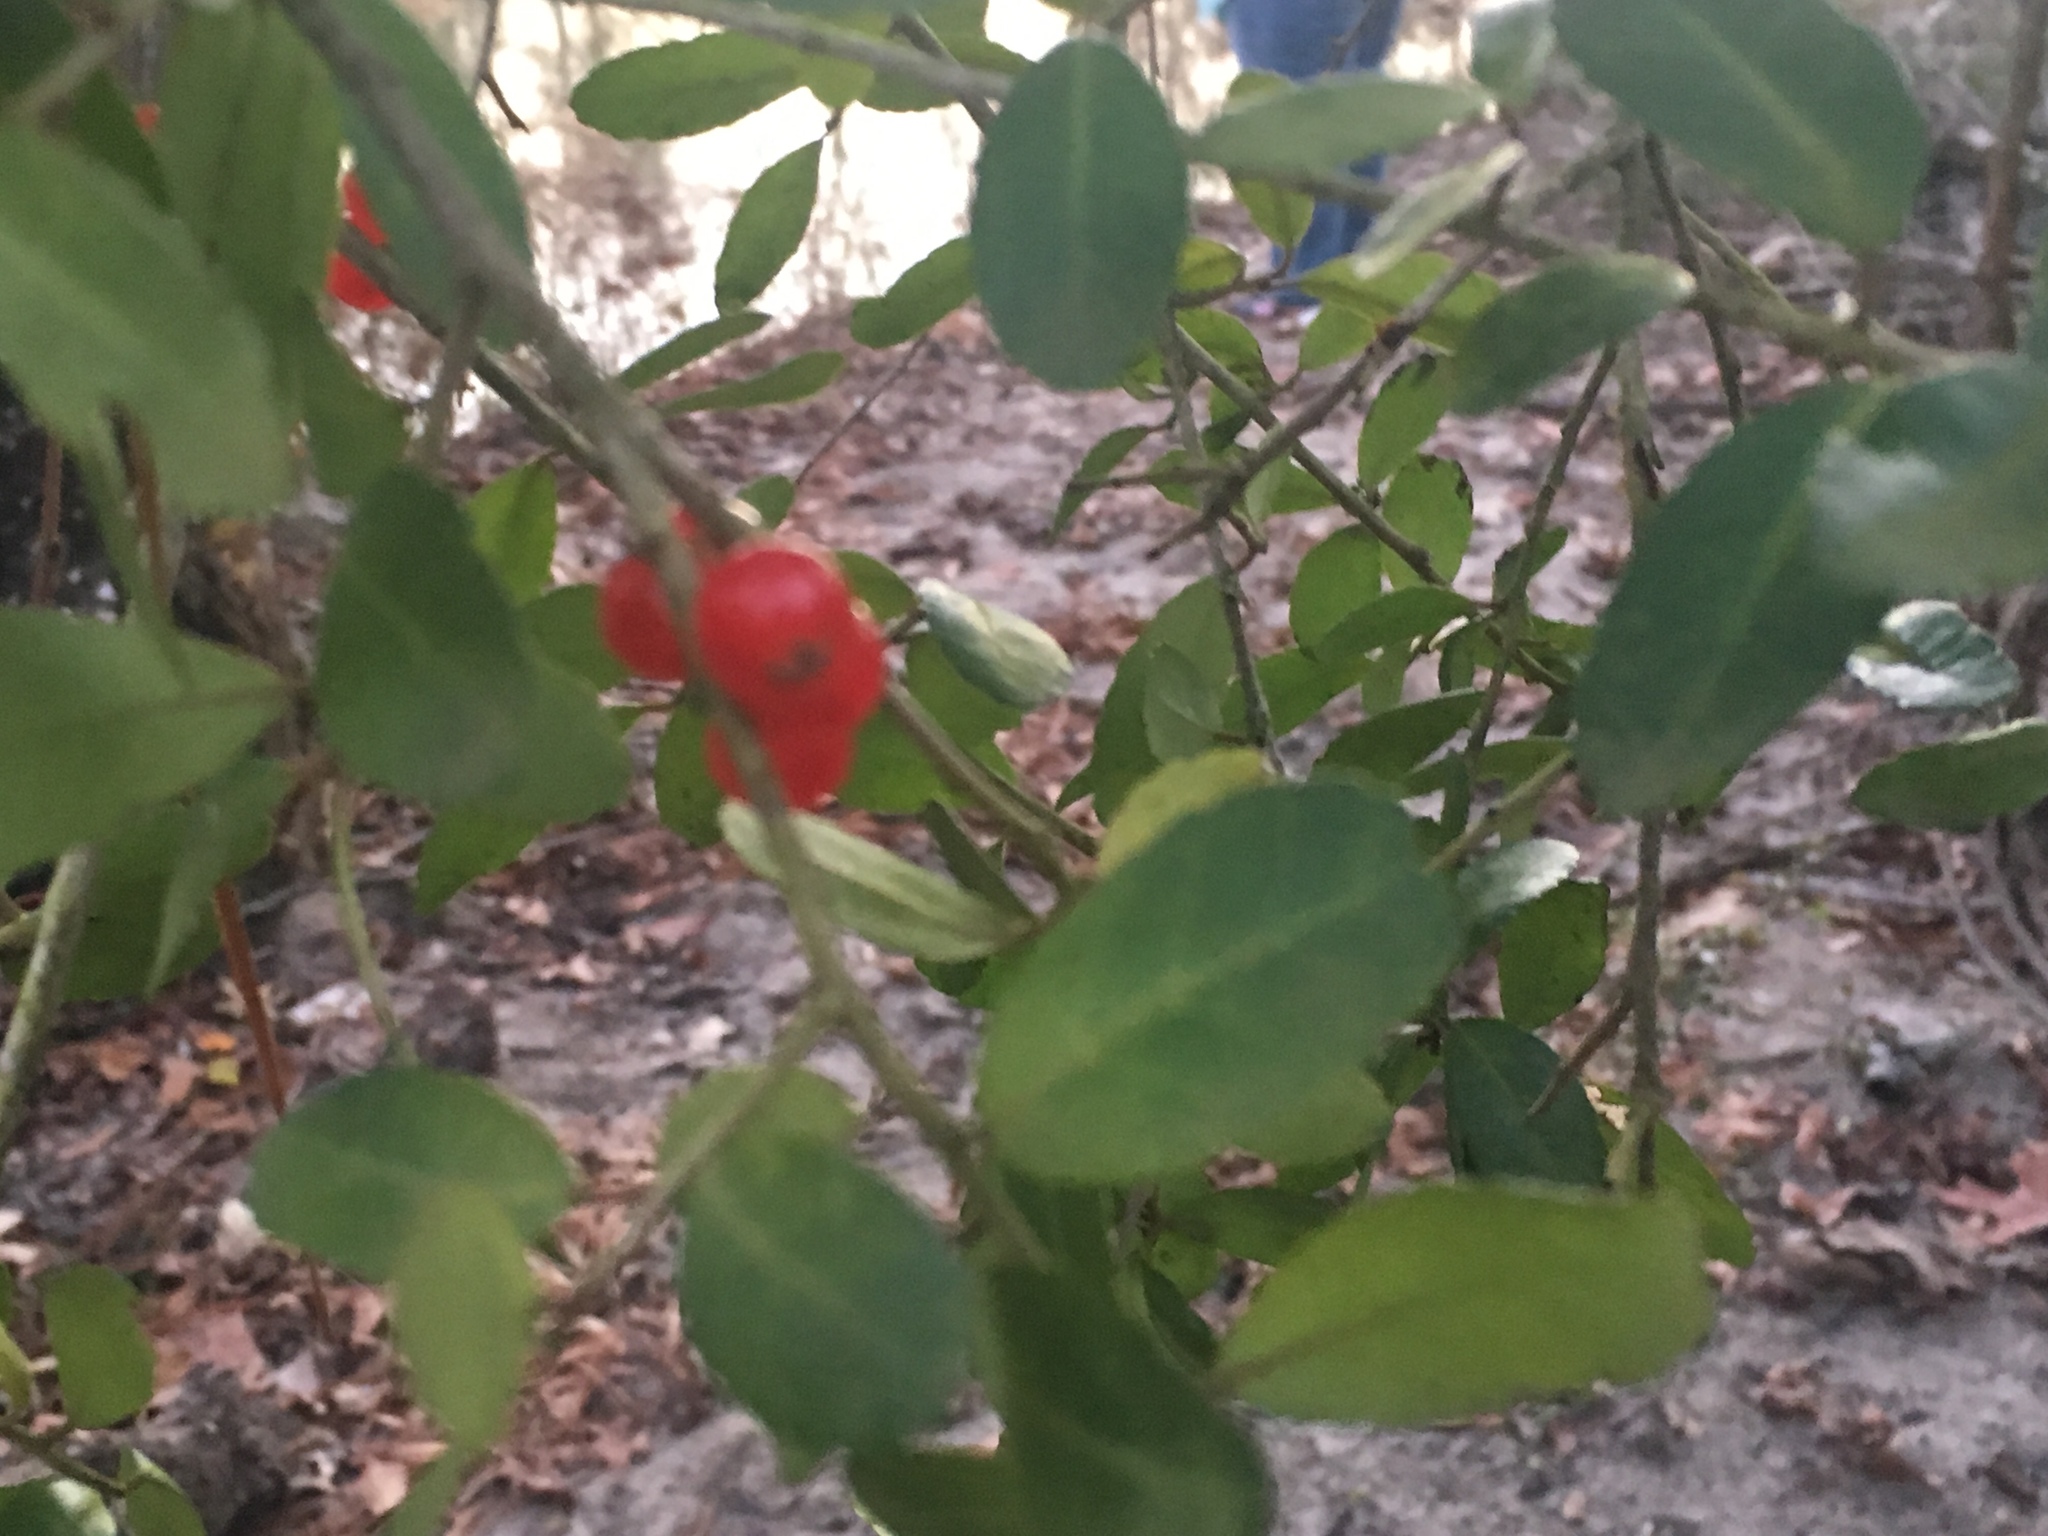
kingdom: Plantae
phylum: Tracheophyta
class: Magnoliopsida
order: Aquifoliales
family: Aquifoliaceae
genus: Ilex
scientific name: Ilex vomitoria
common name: Yaupon holly
